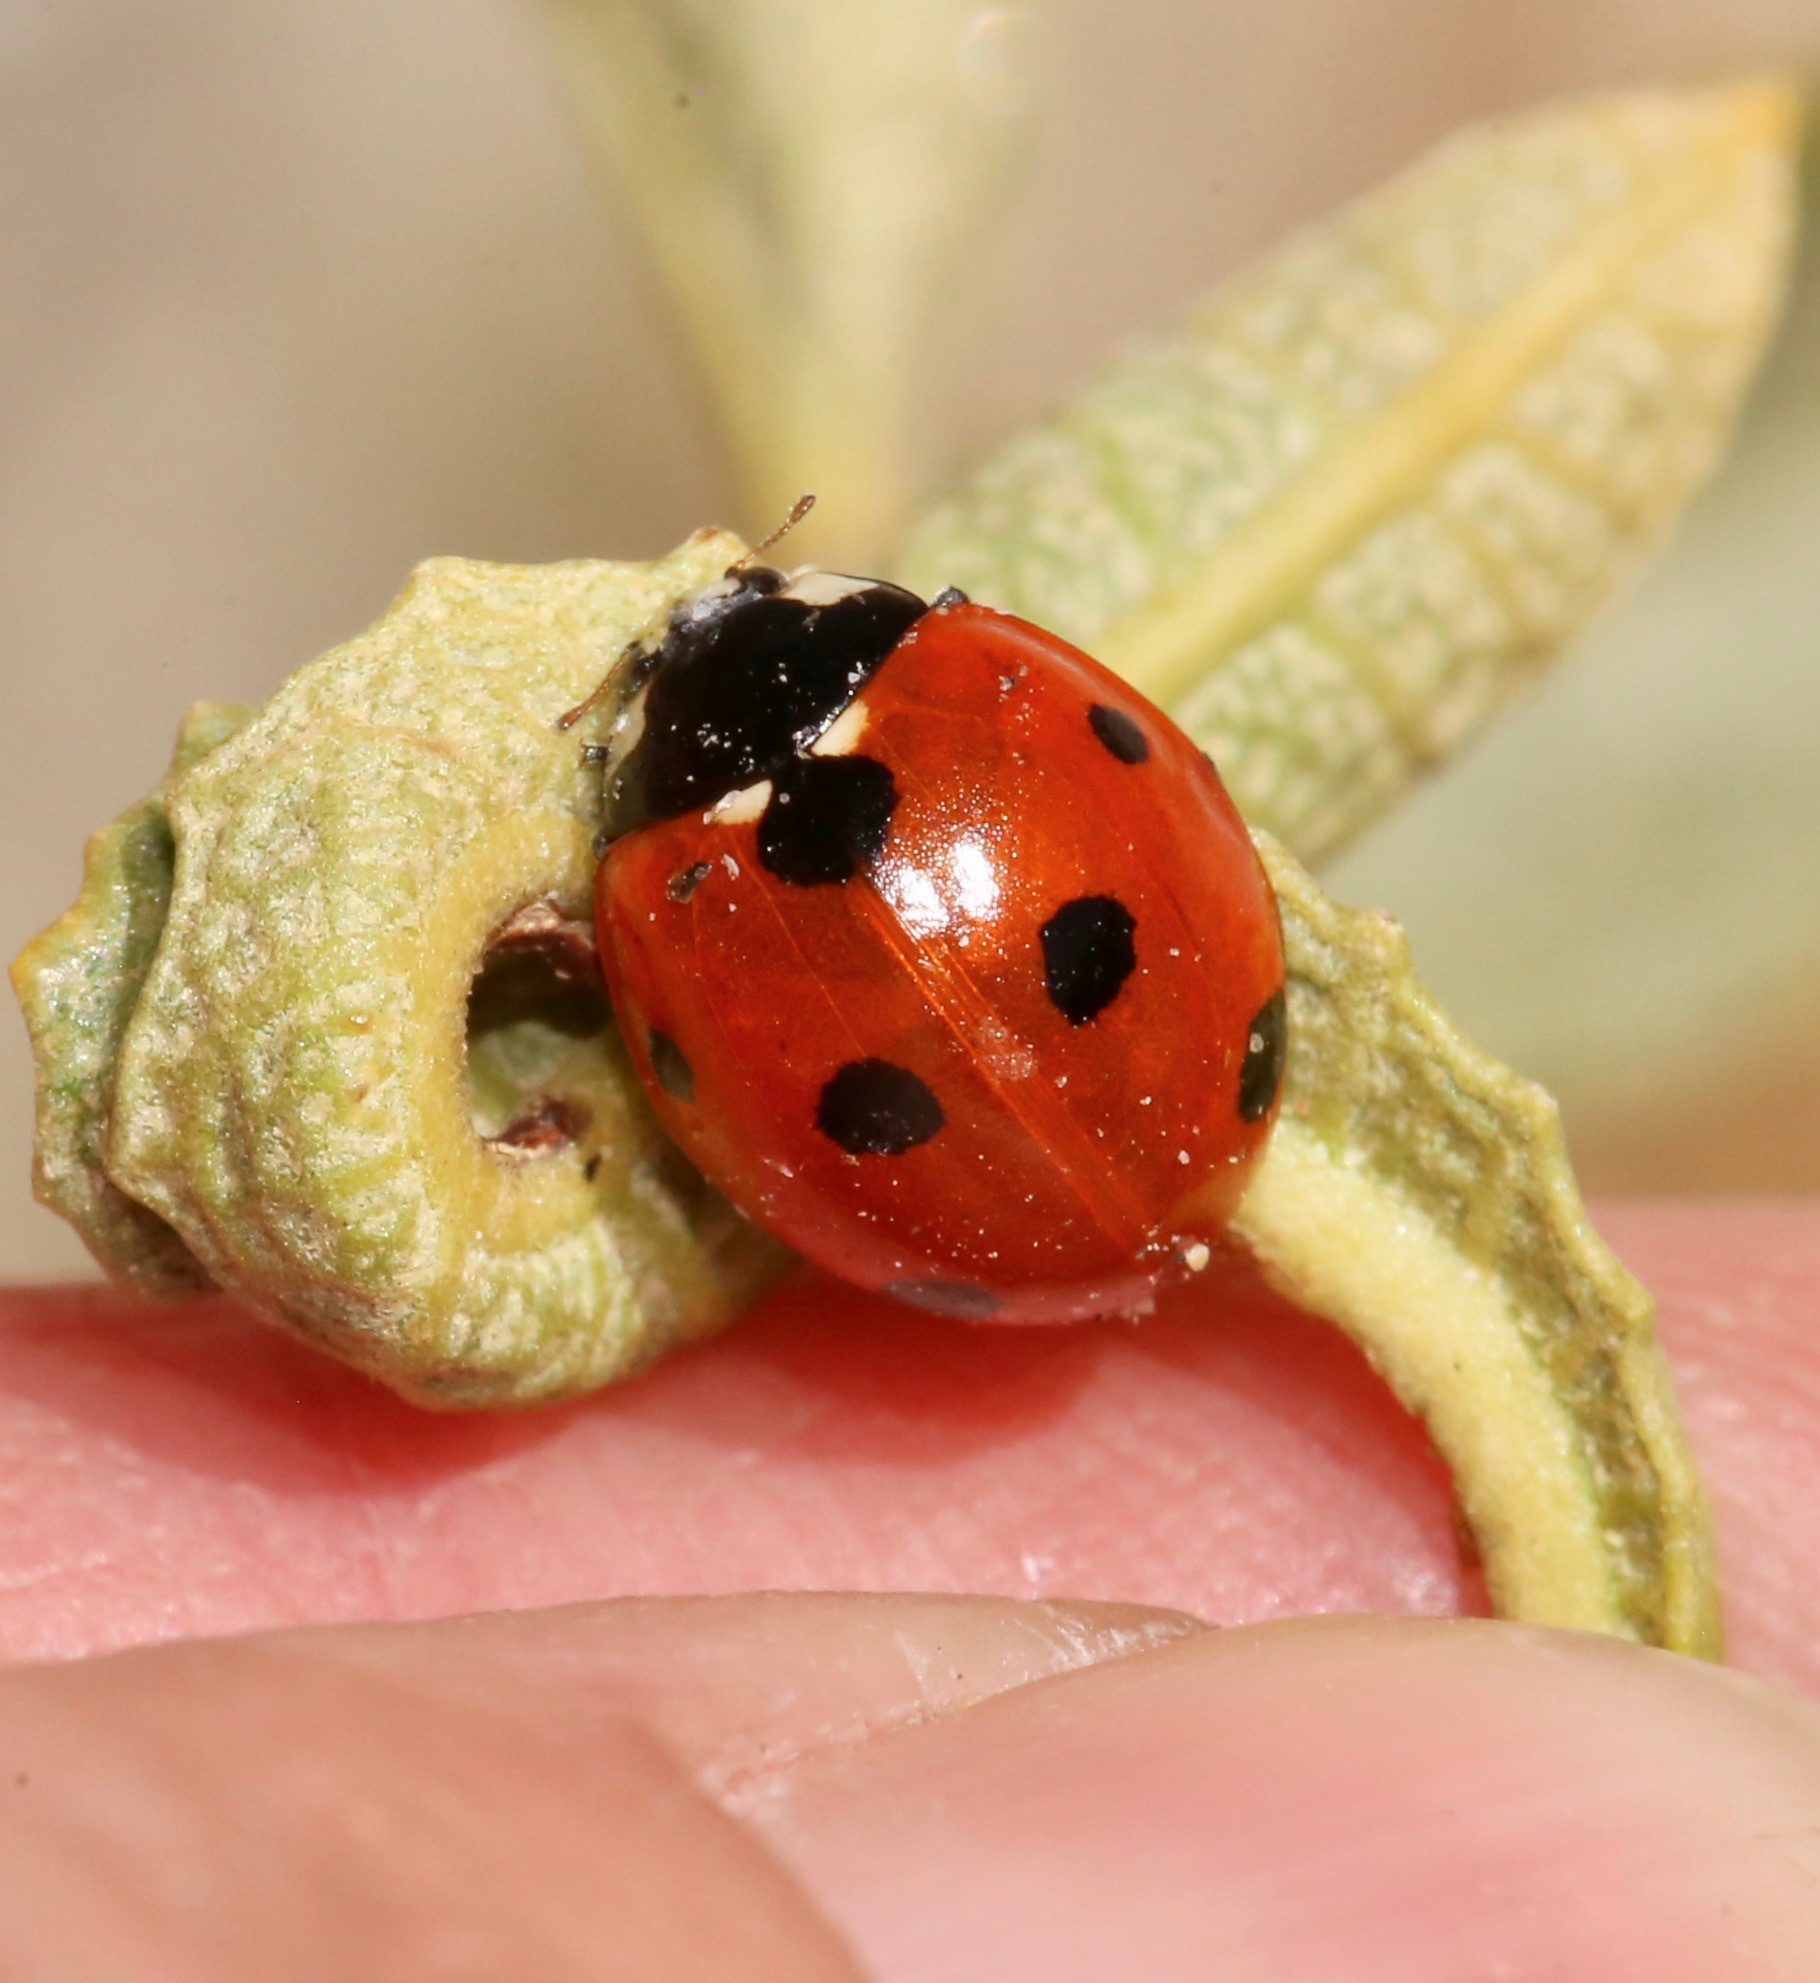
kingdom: Animalia
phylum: Arthropoda
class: Insecta
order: Coleoptera
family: Coccinellidae
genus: Coccinella
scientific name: Coccinella septempunctata
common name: Sevenspotted lady beetle
